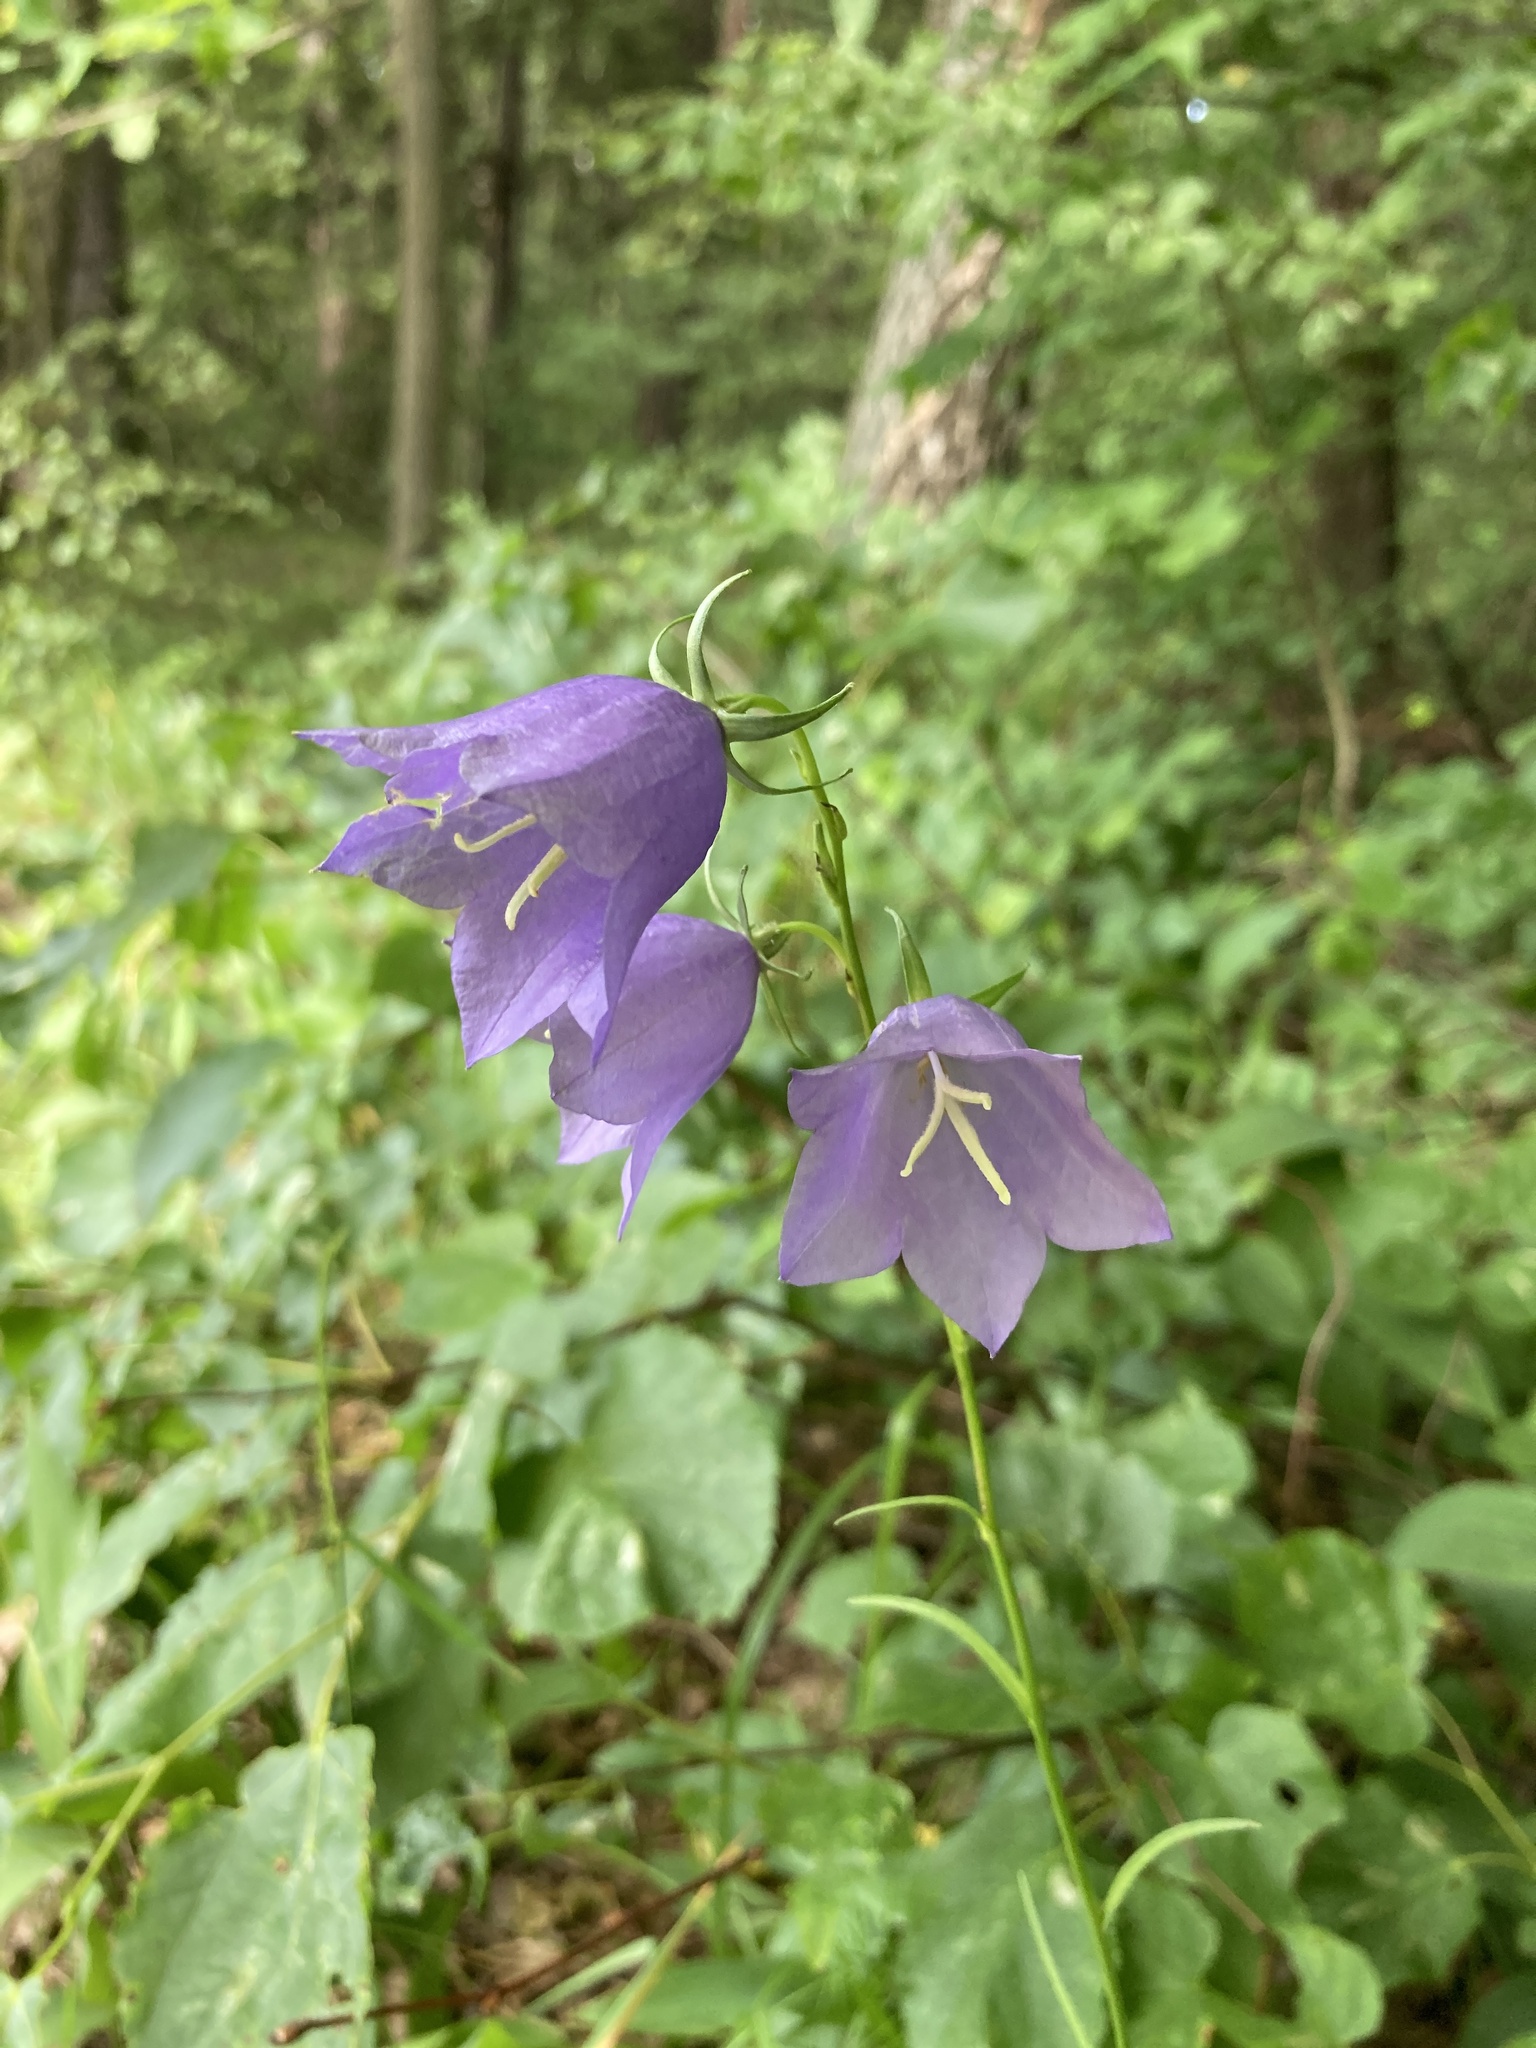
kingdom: Plantae
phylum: Tracheophyta
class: Magnoliopsida
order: Asterales
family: Campanulaceae
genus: Campanula
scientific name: Campanula persicifolia
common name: Peach-leaved bellflower
